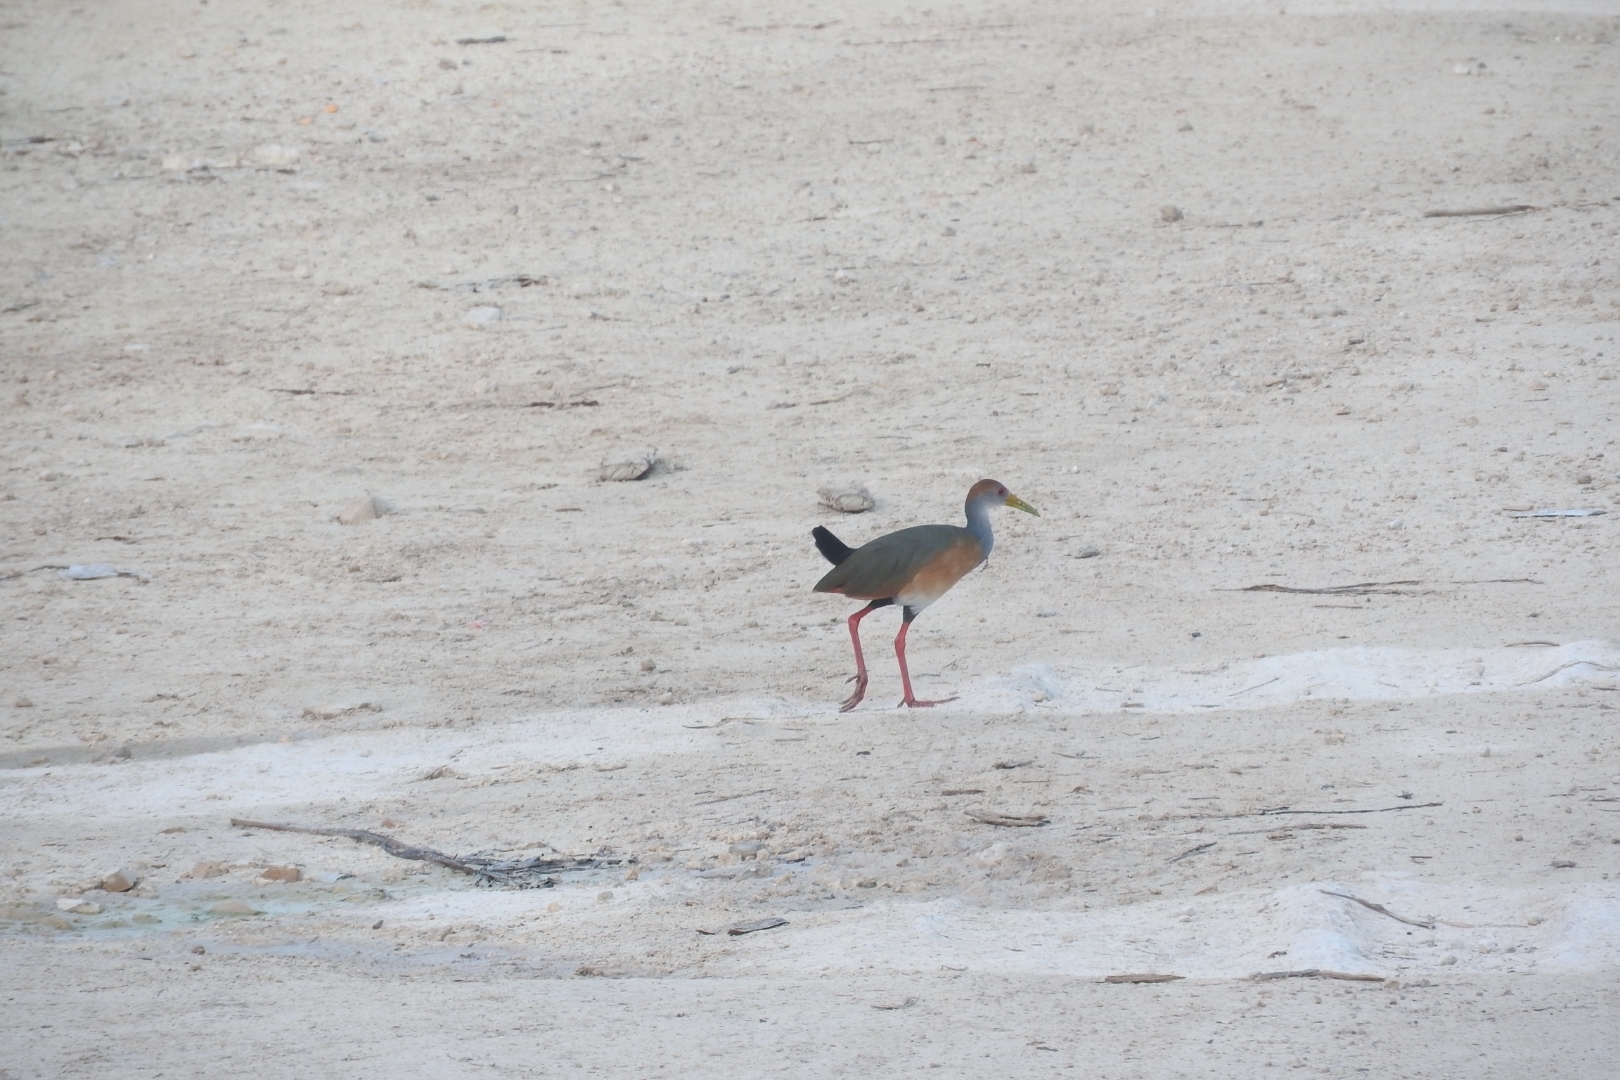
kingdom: Animalia
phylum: Chordata
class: Aves
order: Gruiformes
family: Rallidae
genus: Aramides
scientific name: Aramides albiventris
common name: Russet-naped wood-rail
